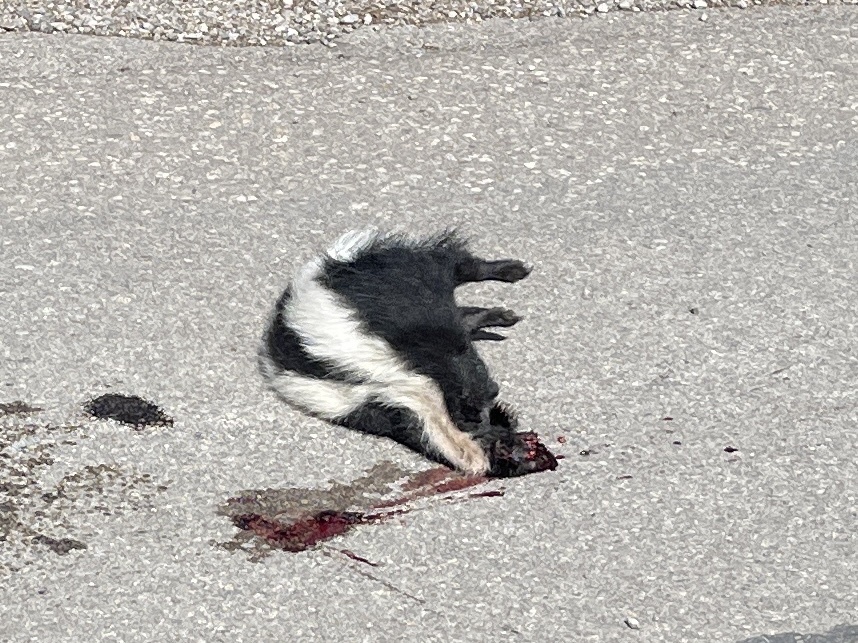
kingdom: Animalia
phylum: Chordata
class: Mammalia
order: Carnivora
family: Mephitidae
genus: Mephitis
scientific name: Mephitis mephitis
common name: Striped skunk
